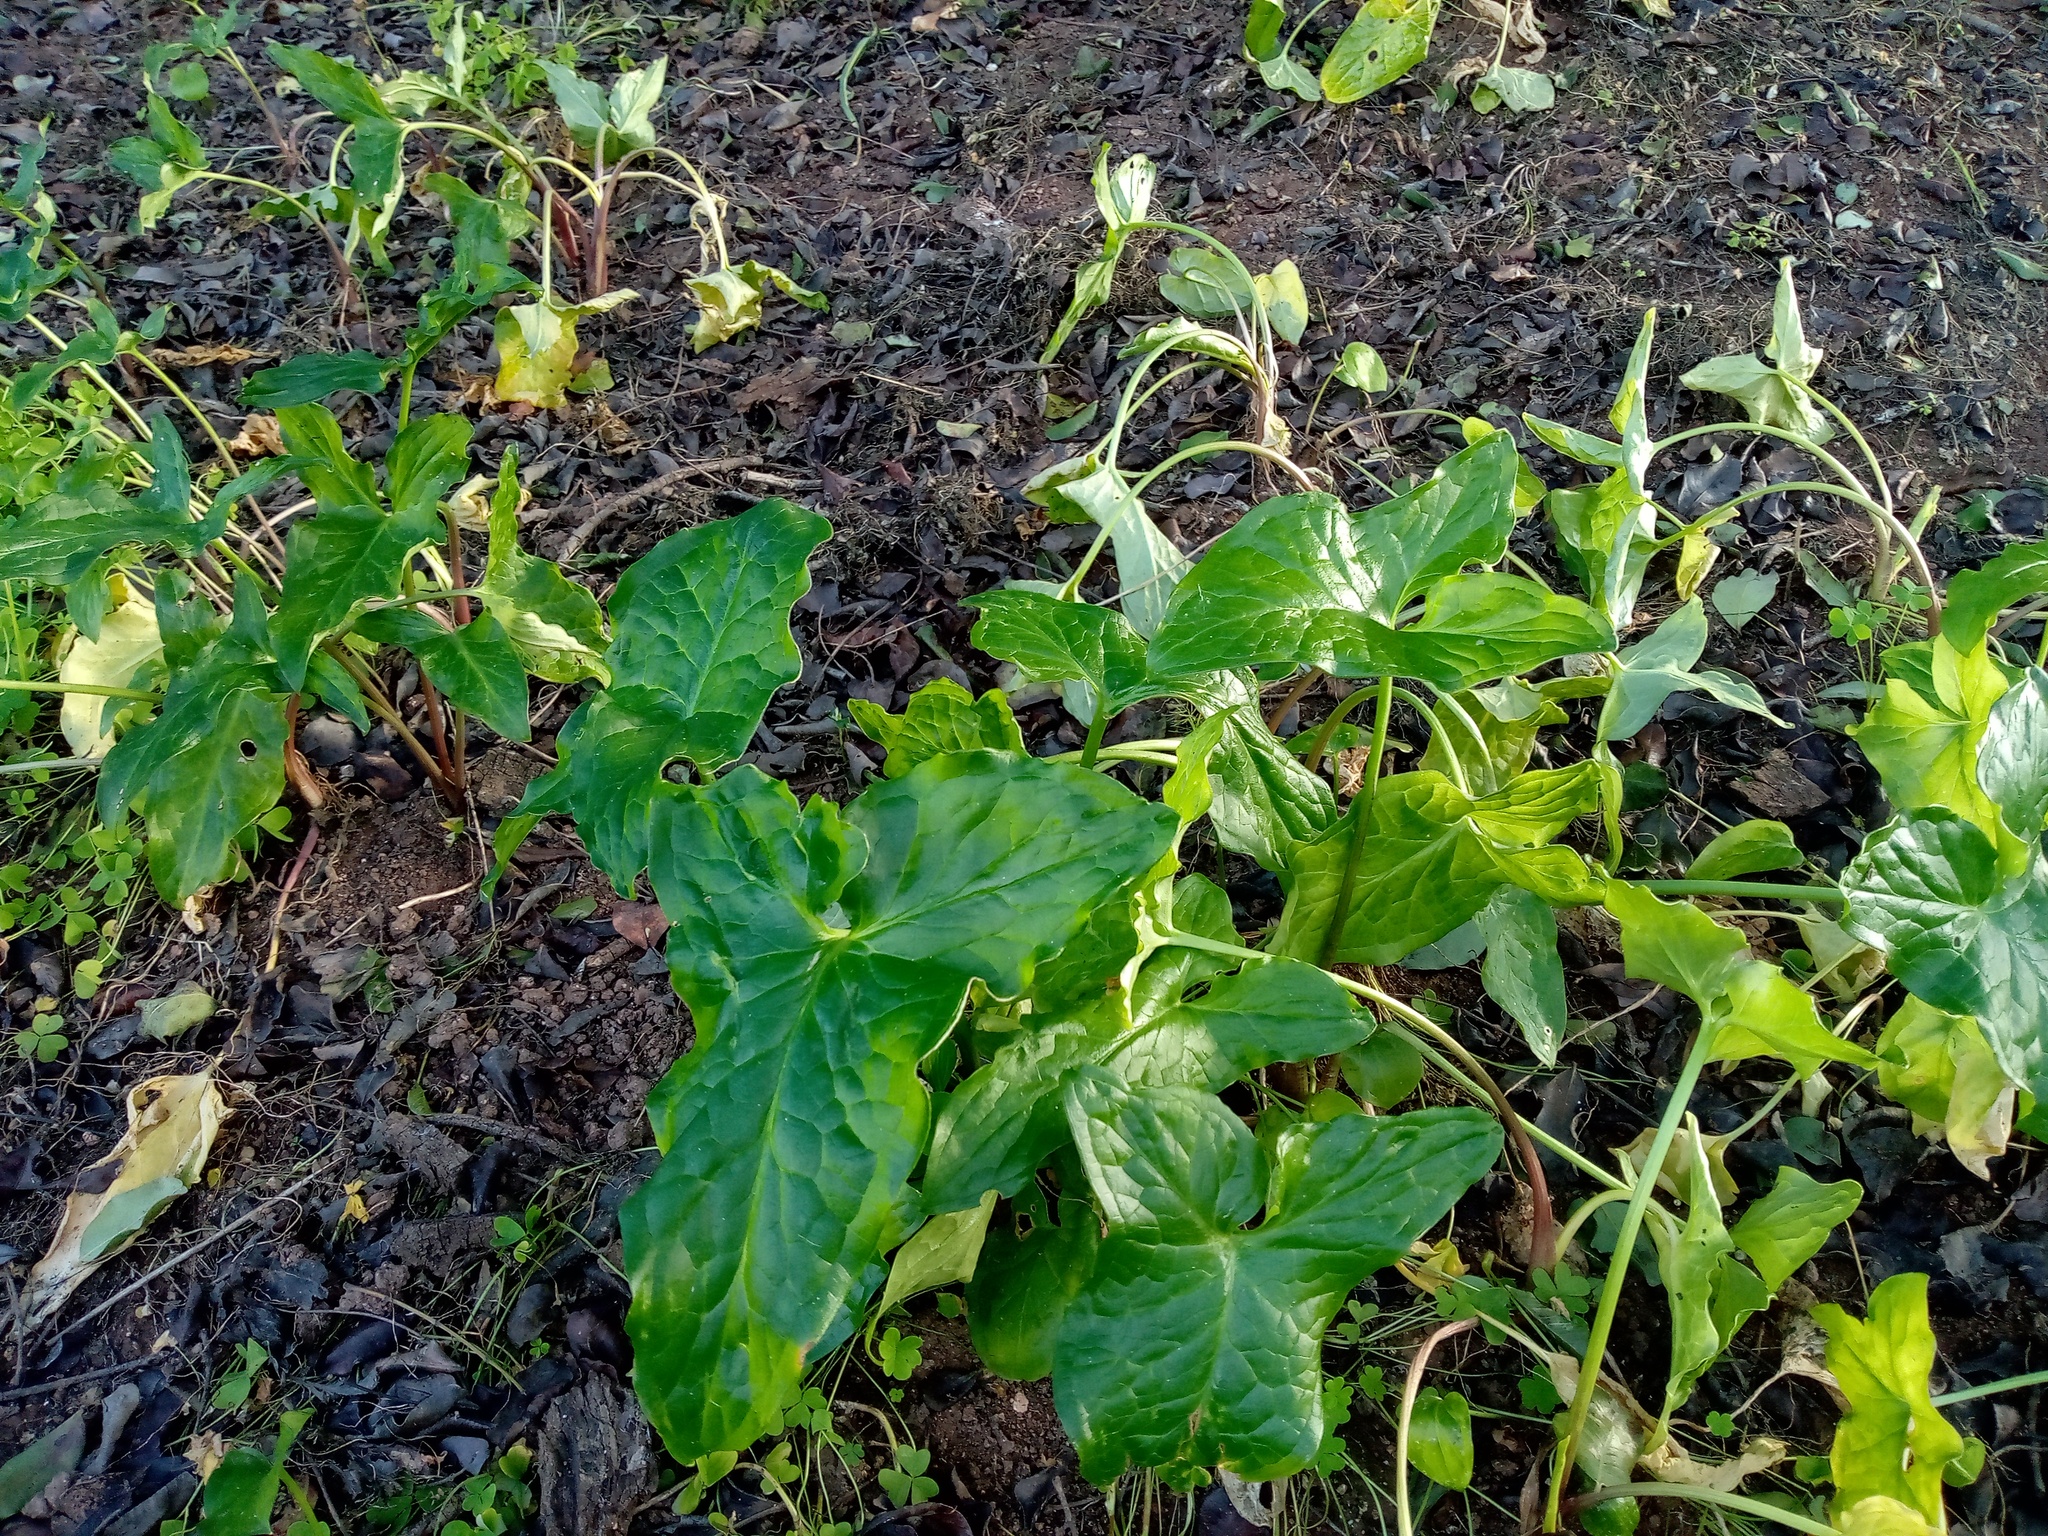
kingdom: Plantae
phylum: Tracheophyta
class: Liliopsida
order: Alismatales
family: Araceae
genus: Arum
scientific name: Arum italicum
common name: Italian lords-and-ladies
